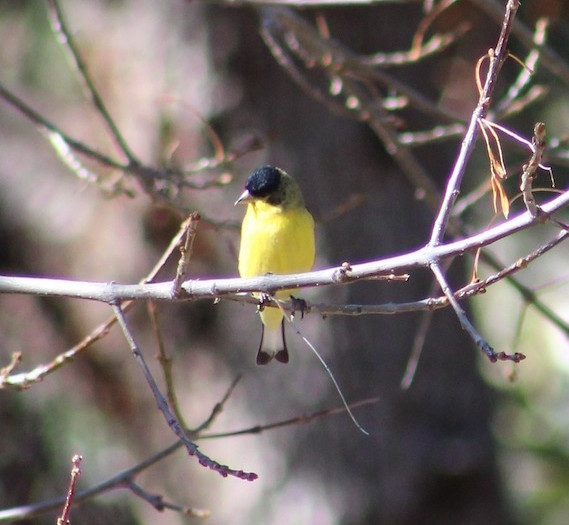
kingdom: Animalia
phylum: Chordata
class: Aves
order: Passeriformes
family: Fringillidae
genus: Spinus
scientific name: Spinus psaltria
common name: Lesser goldfinch
